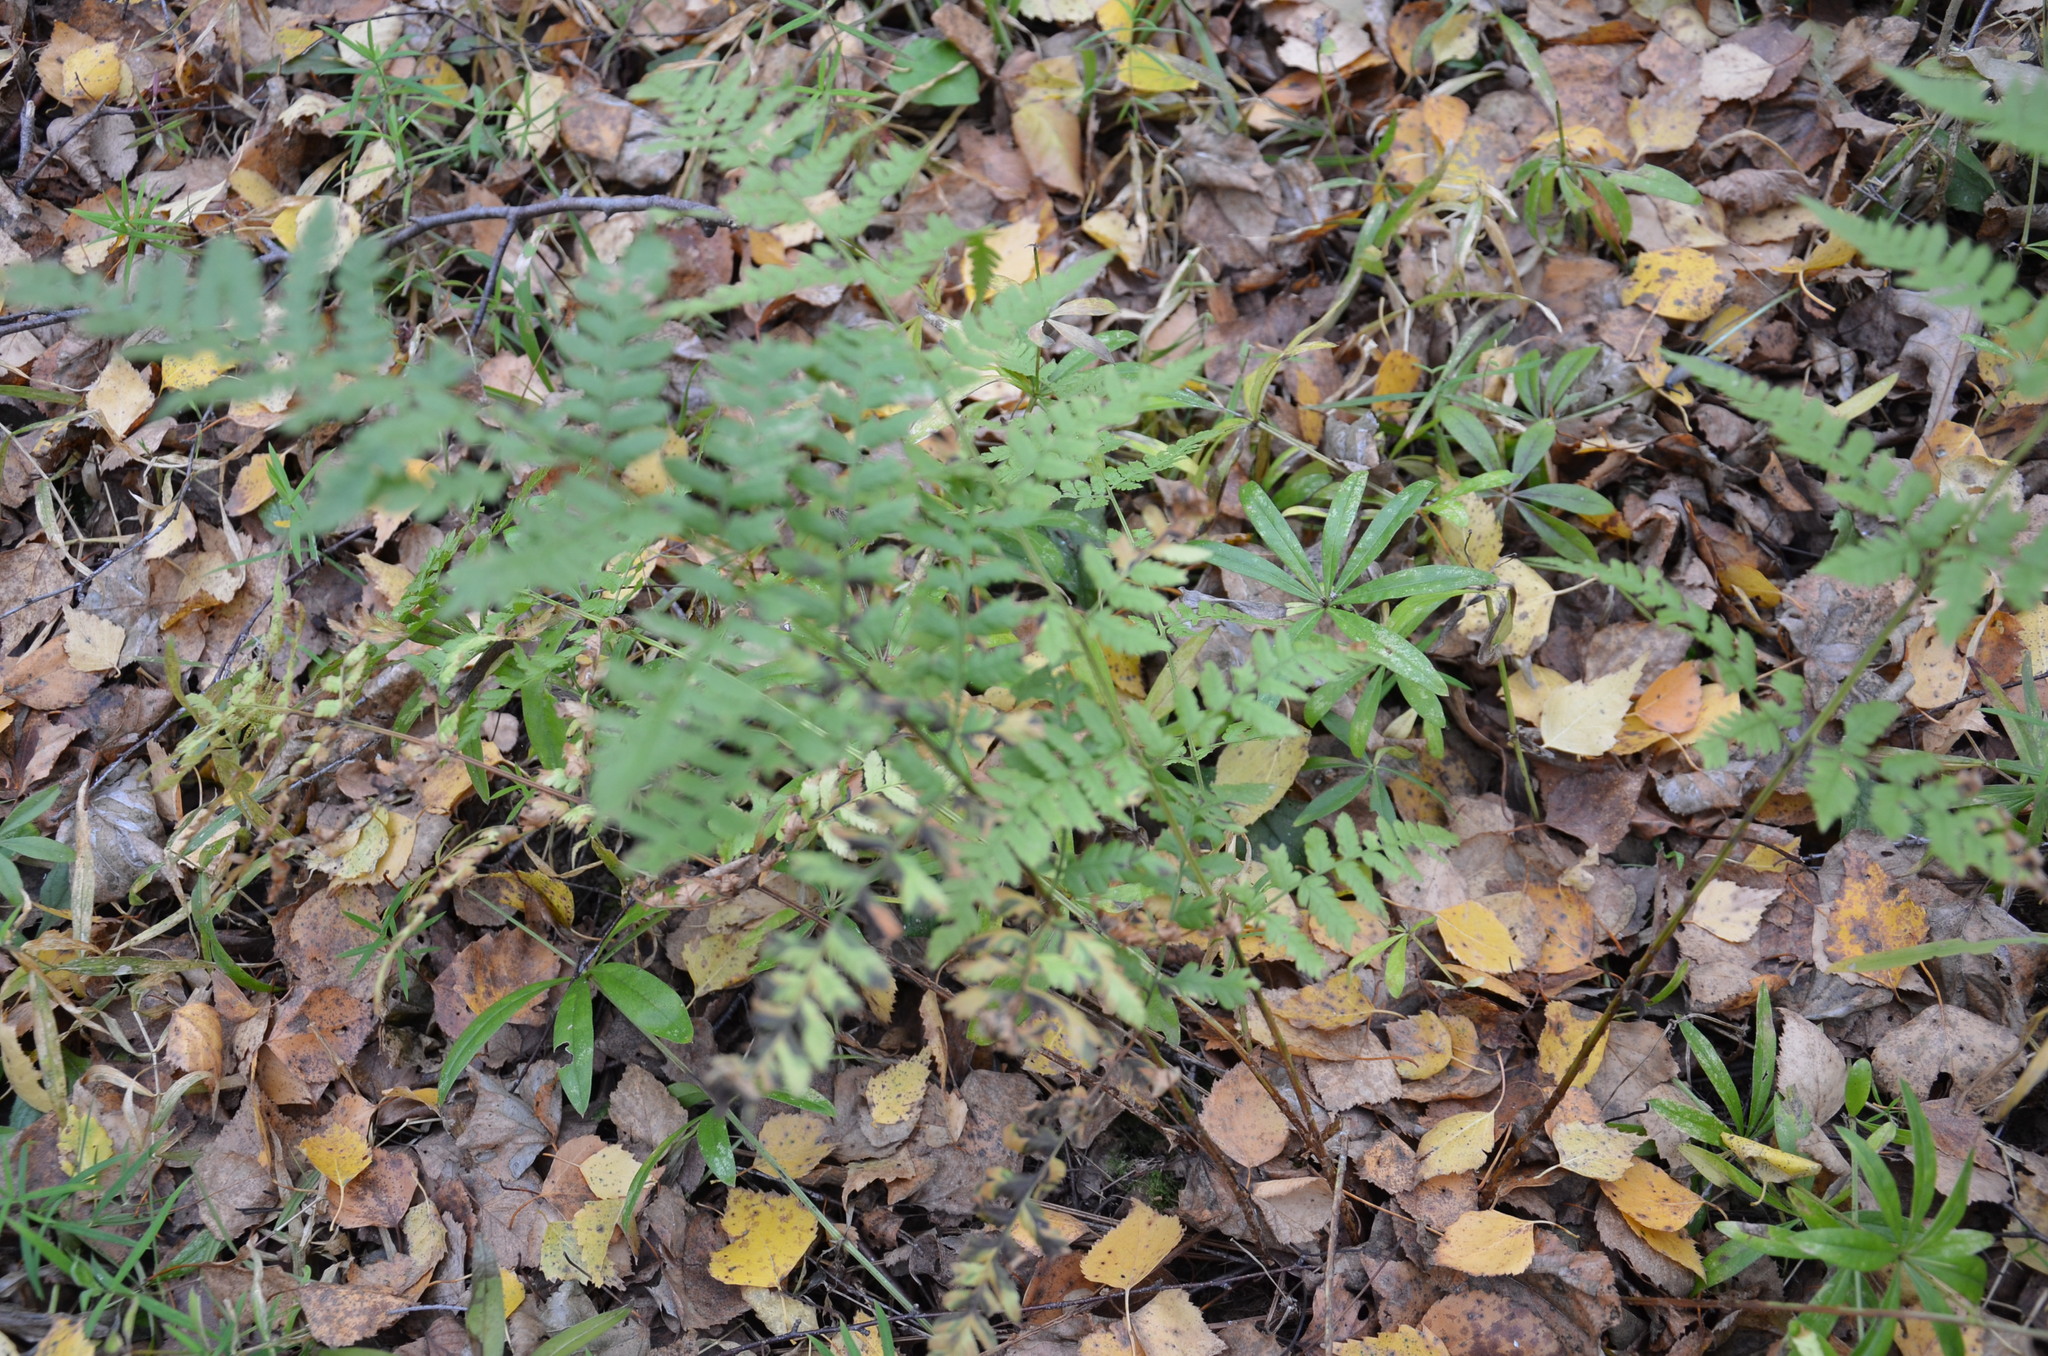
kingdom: Plantae
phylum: Tracheophyta
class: Polypodiopsida
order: Polypodiales
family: Dryopteridaceae
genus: Dryopteris
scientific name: Dryopteris carthusiana
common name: Narrow buckler-fern
